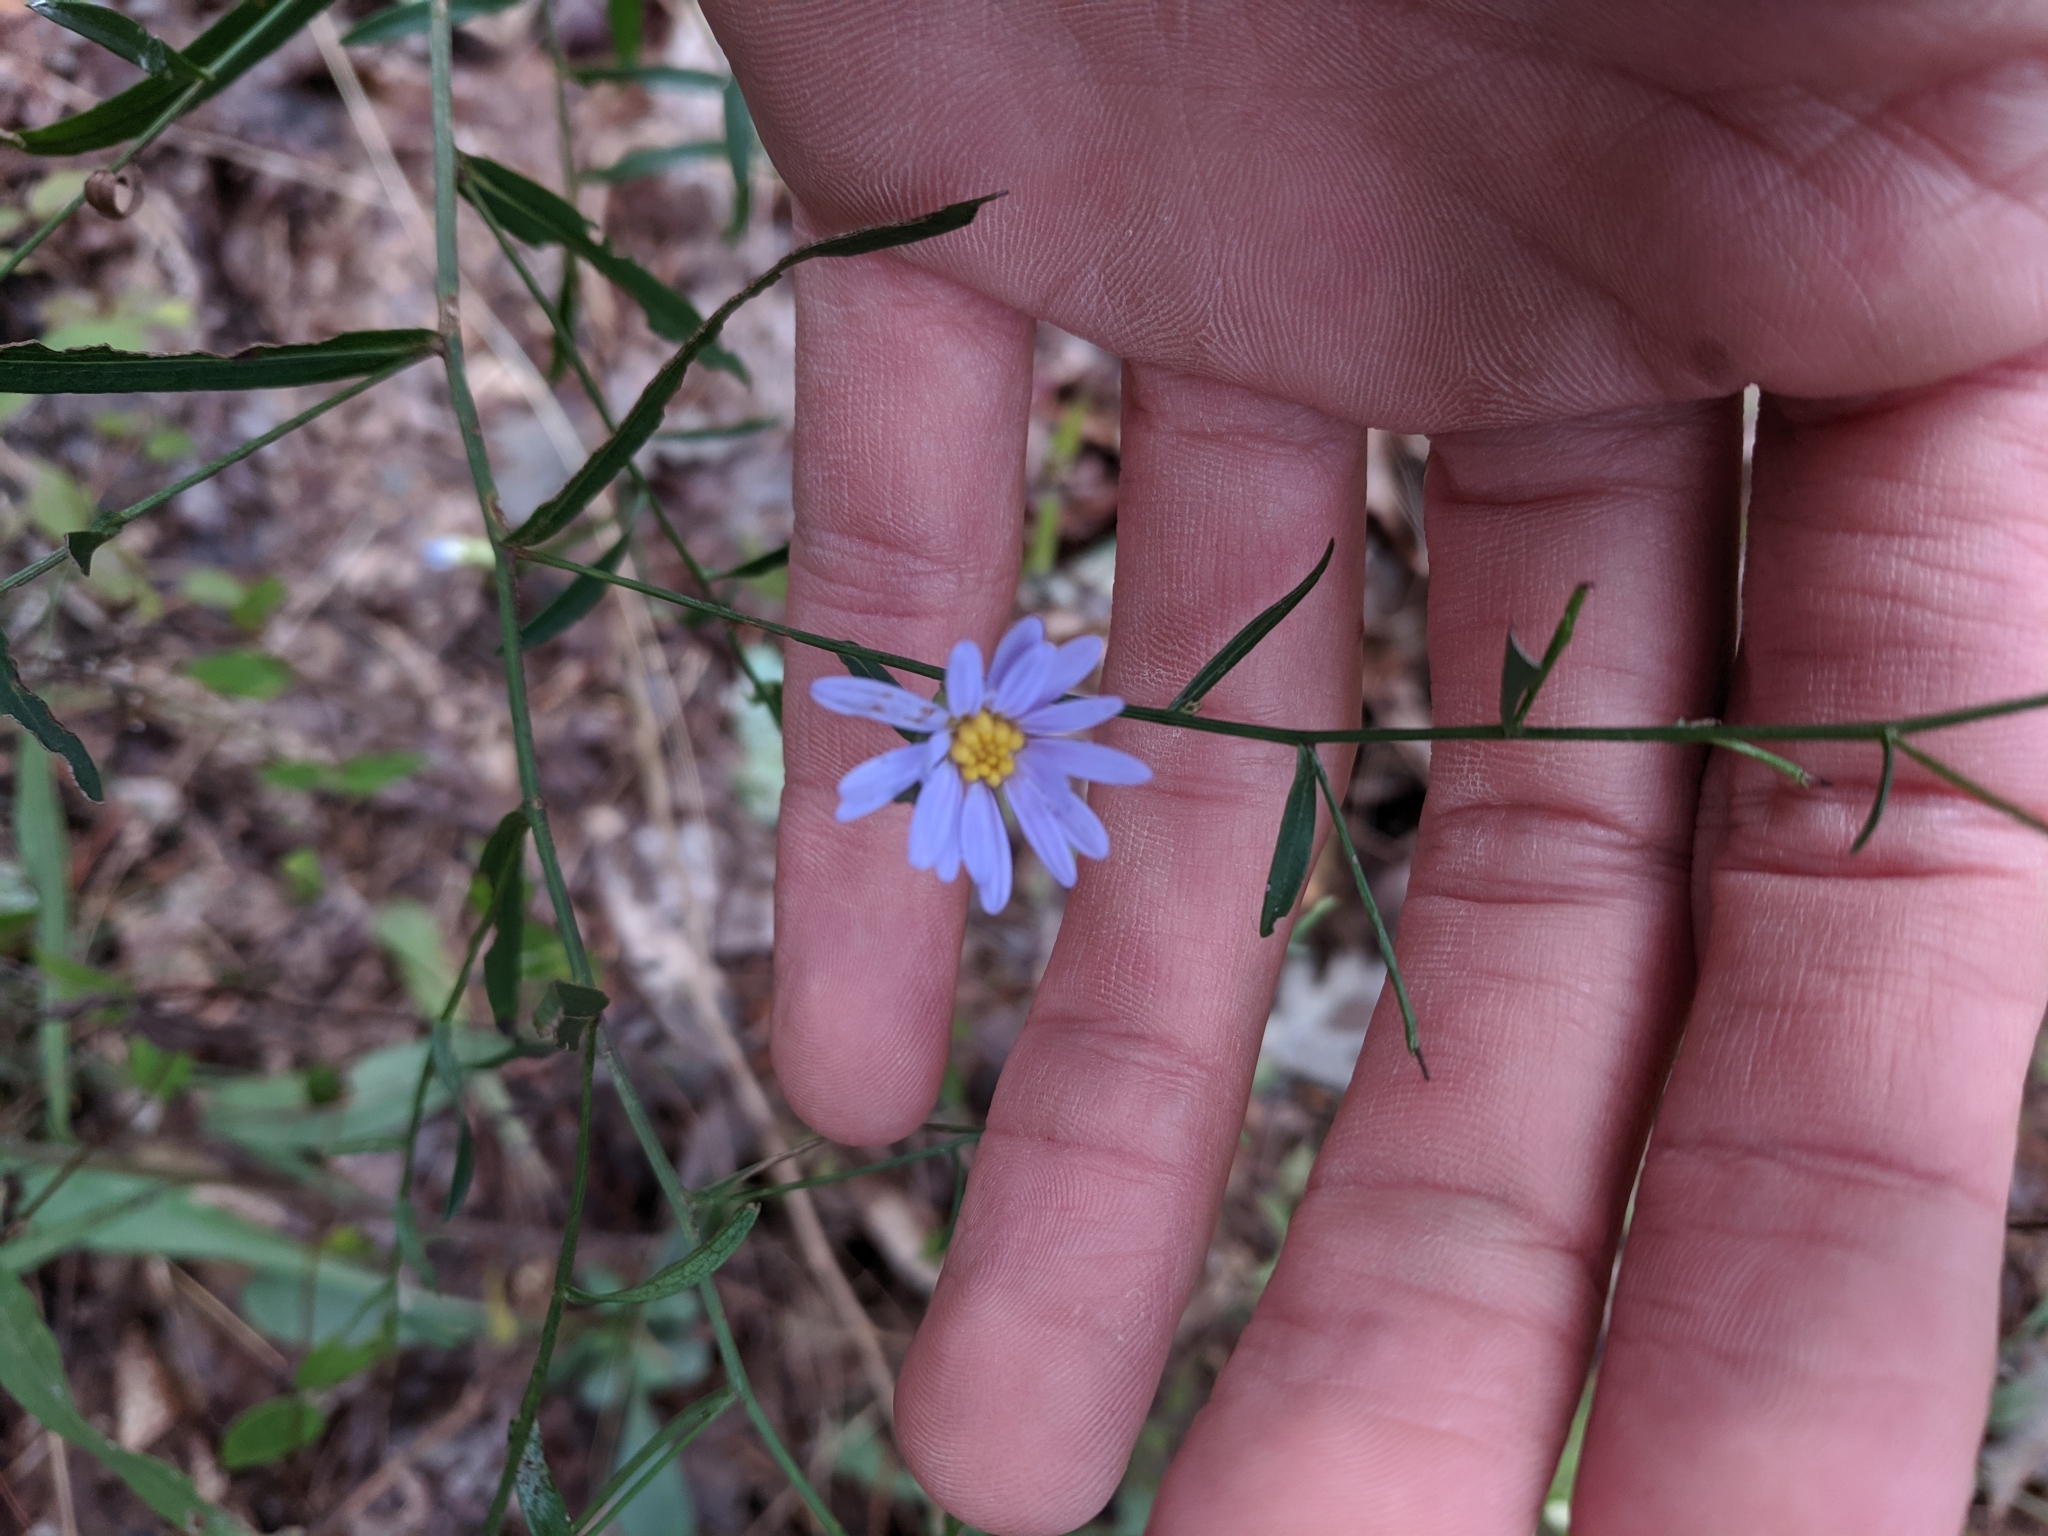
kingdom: Plantae
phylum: Tracheophyta
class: Magnoliopsida
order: Asterales
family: Asteraceae
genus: Symphyotrichum
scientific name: Symphyotrichum turbinellum
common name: Prairie aster
